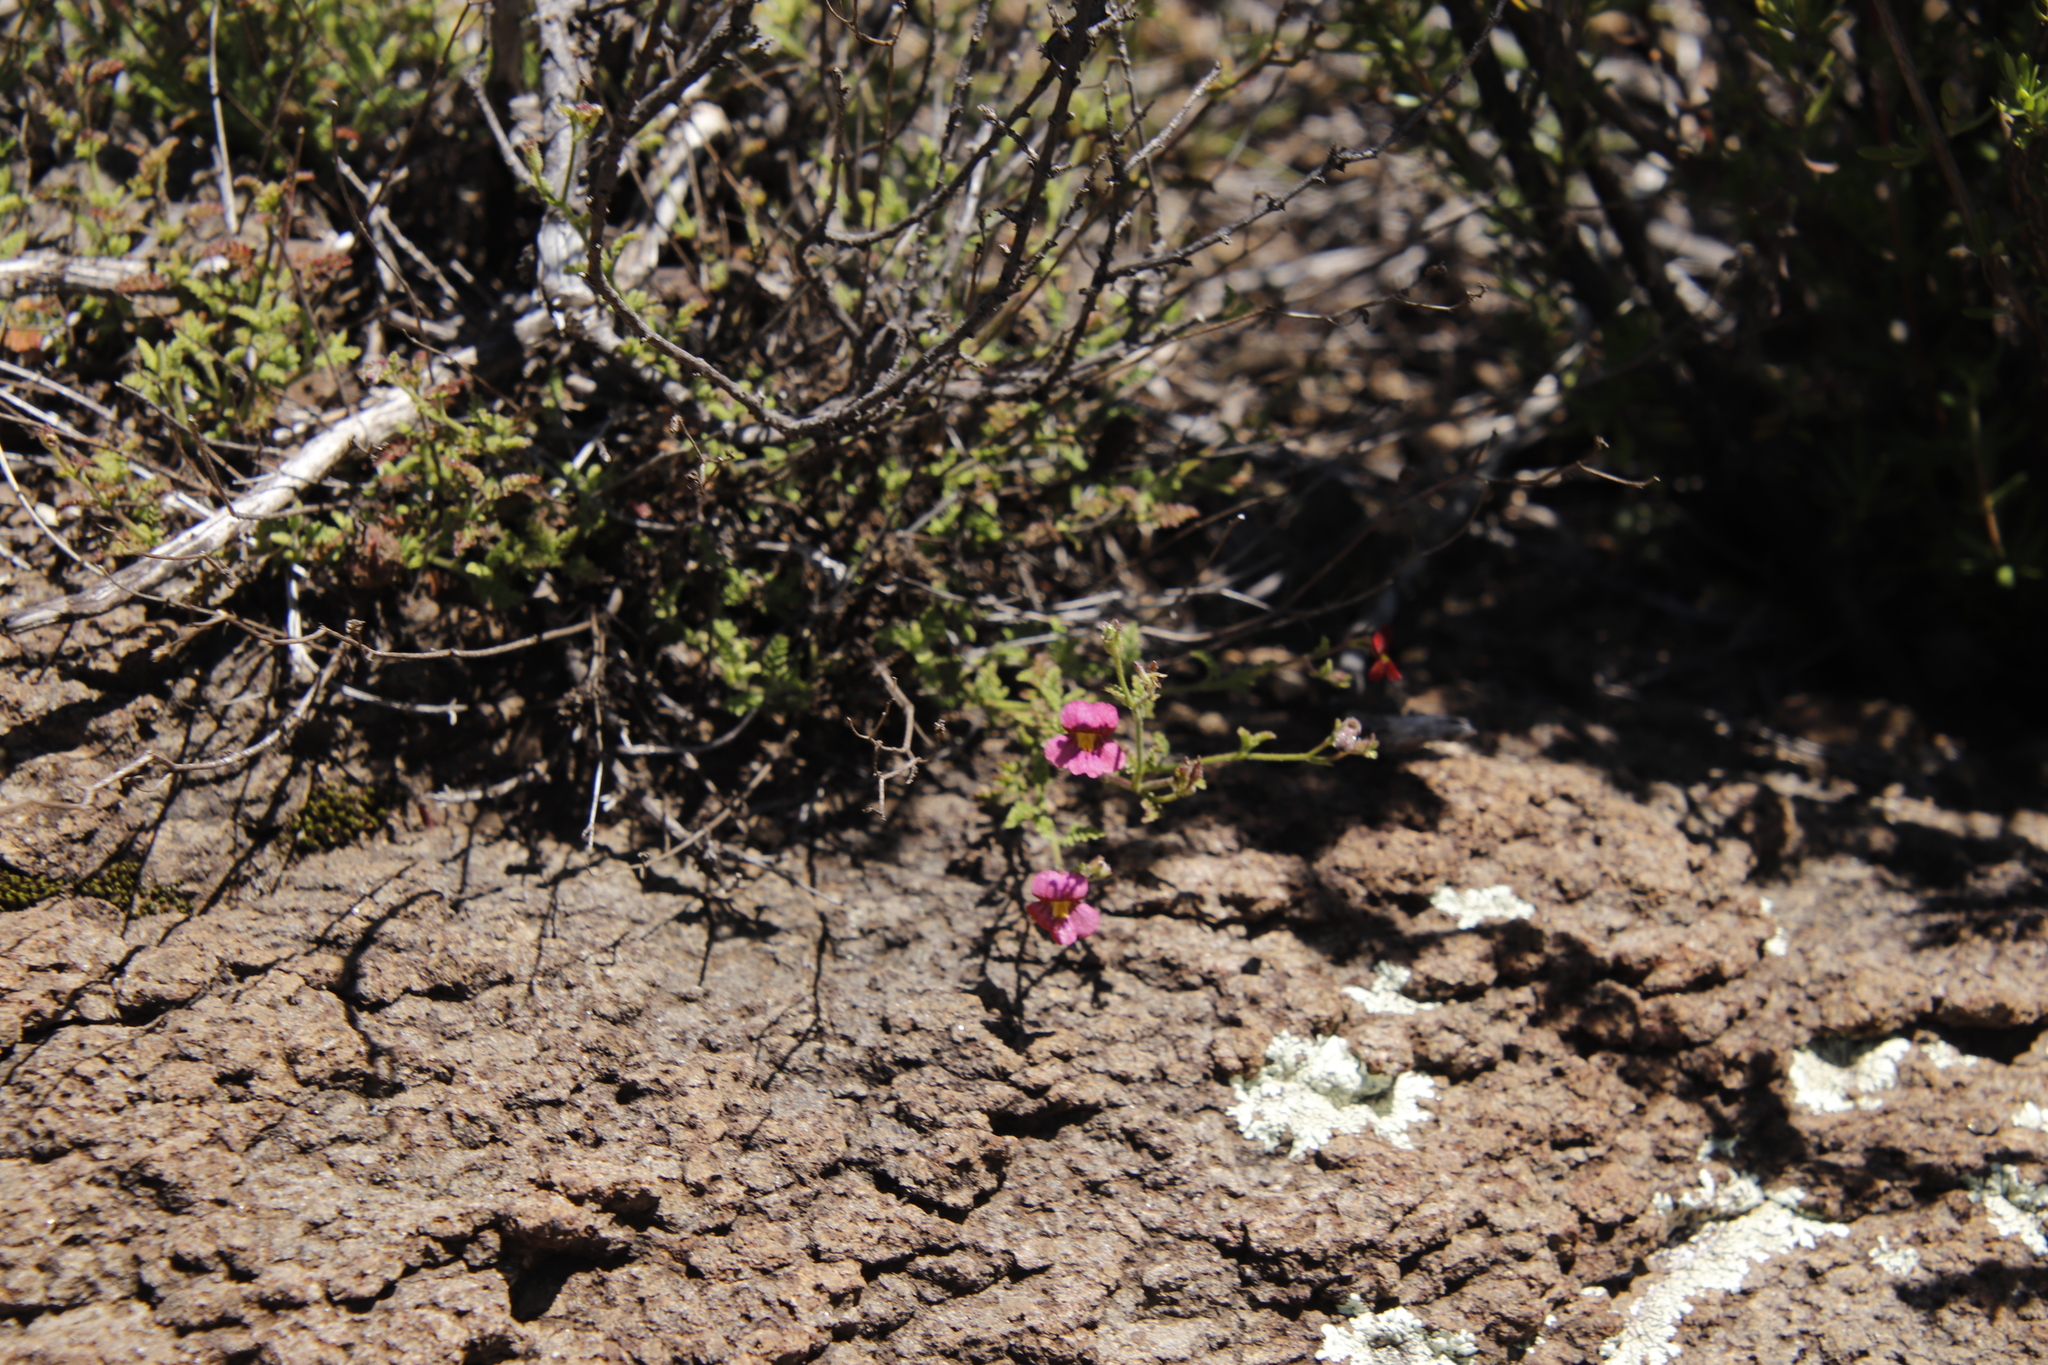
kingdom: Plantae
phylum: Tracheophyta
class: Magnoliopsida
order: Lamiales
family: Scrophulariaceae
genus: Jamesbrittenia
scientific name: Jamesbrittenia breviflora
